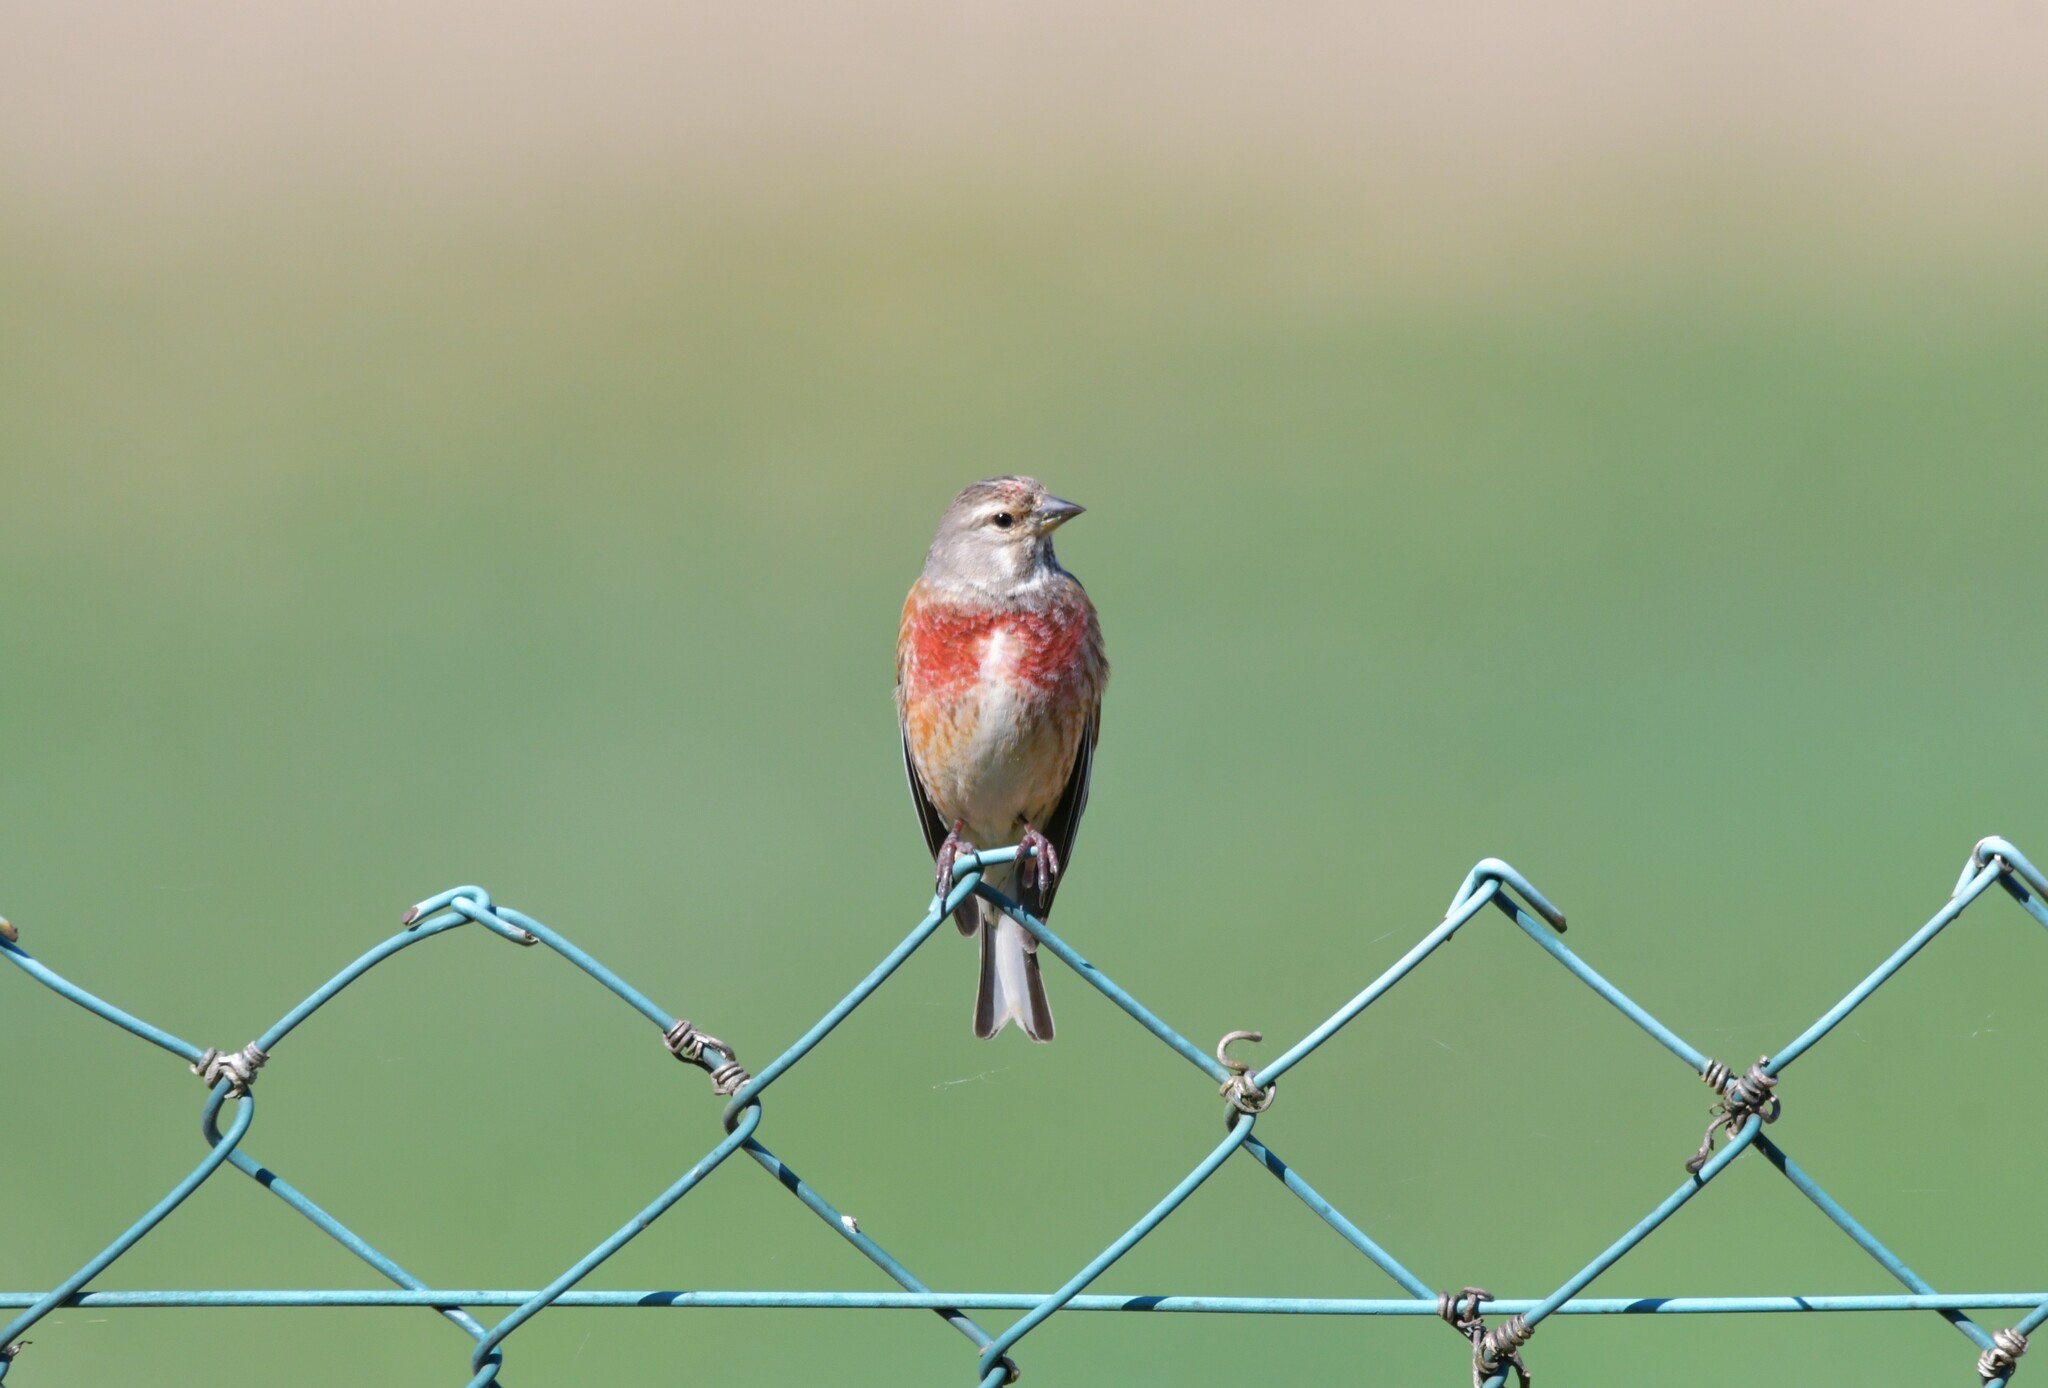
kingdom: Animalia
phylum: Chordata
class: Aves
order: Passeriformes
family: Fringillidae
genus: Linaria
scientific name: Linaria cannabina
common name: Common linnet
